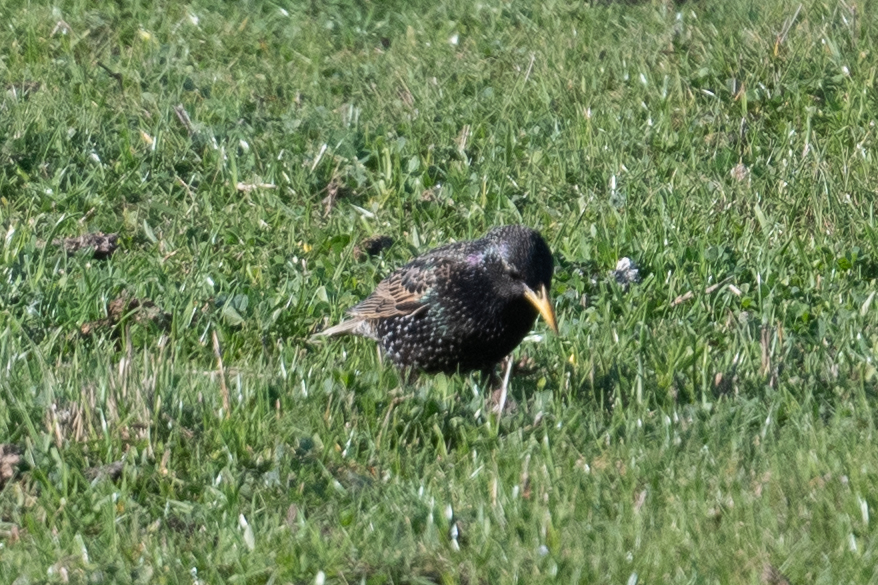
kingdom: Animalia
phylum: Chordata
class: Aves
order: Passeriformes
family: Sturnidae
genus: Sturnus
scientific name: Sturnus vulgaris
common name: Common starling
